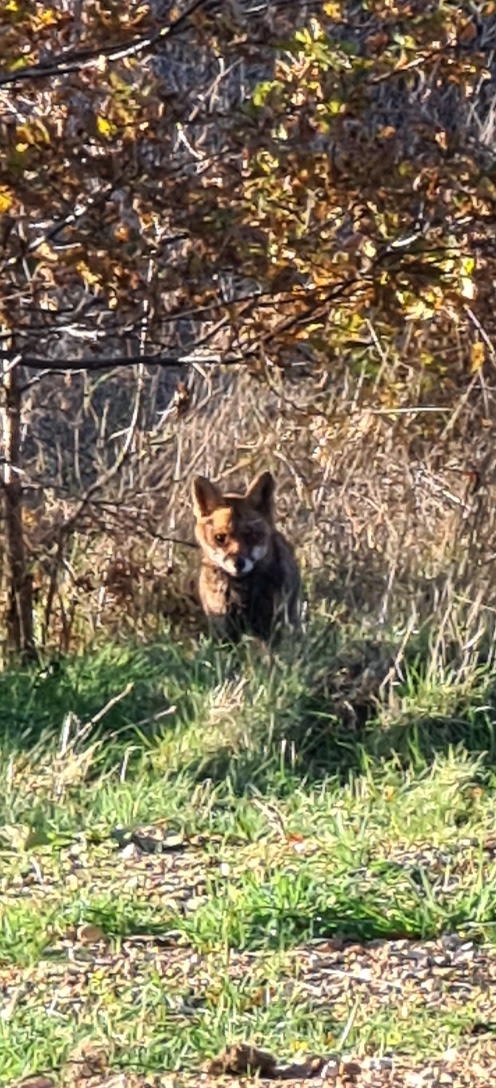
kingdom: Animalia
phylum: Chordata
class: Mammalia
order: Carnivora
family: Canidae
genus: Vulpes
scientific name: Vulpes vulpes
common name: Red fox
